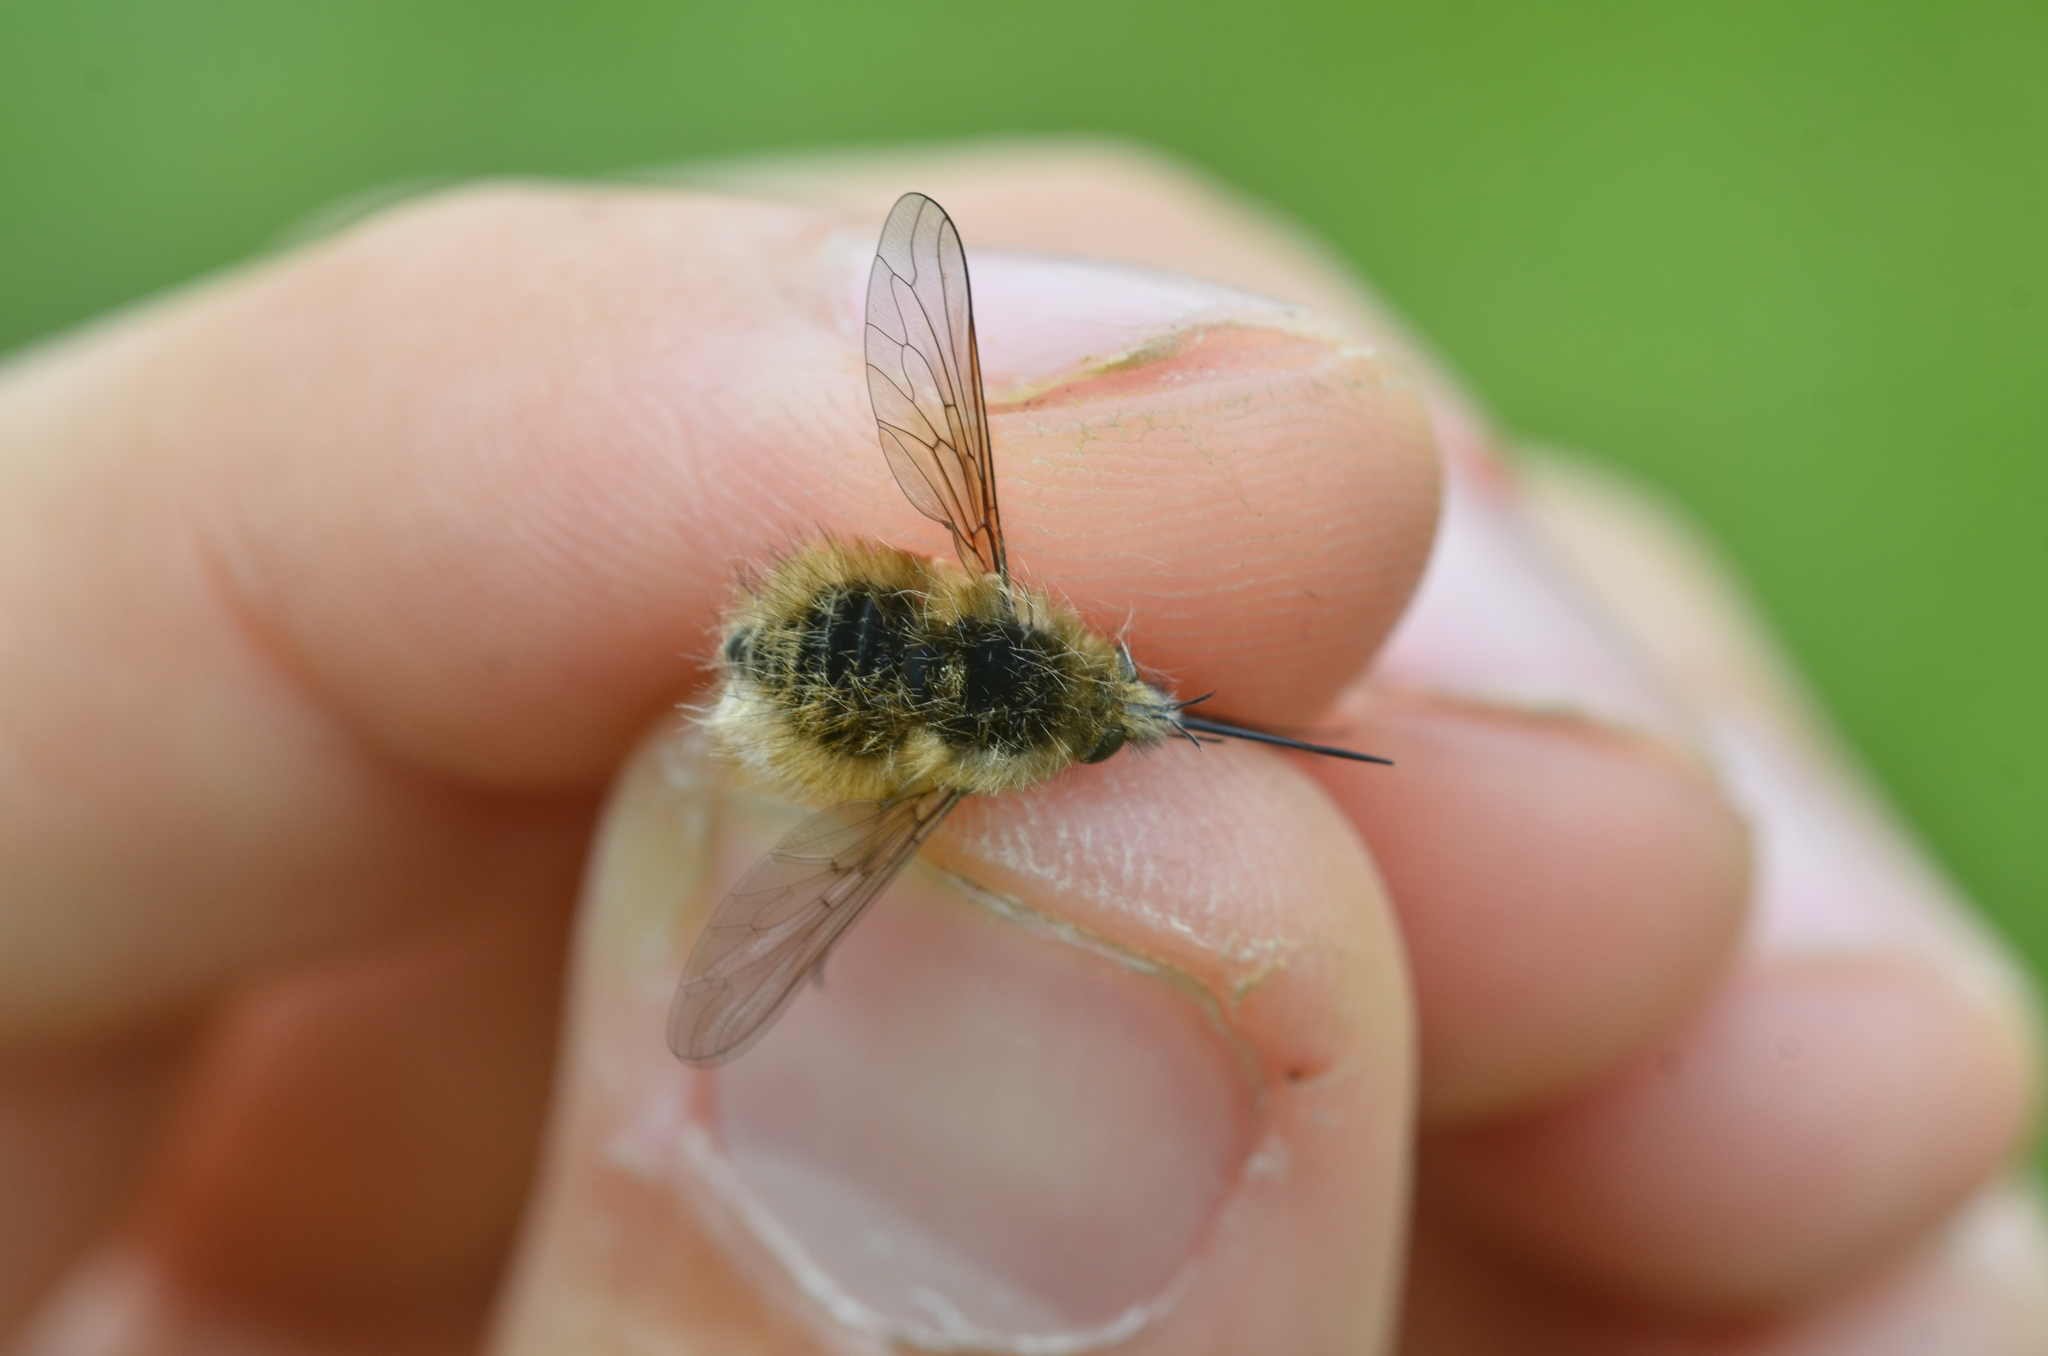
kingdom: Animalia
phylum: Arthropoda
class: Insecta
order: Diptera
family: Bombyliidae
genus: Bombylius
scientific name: Bombylius venosus
